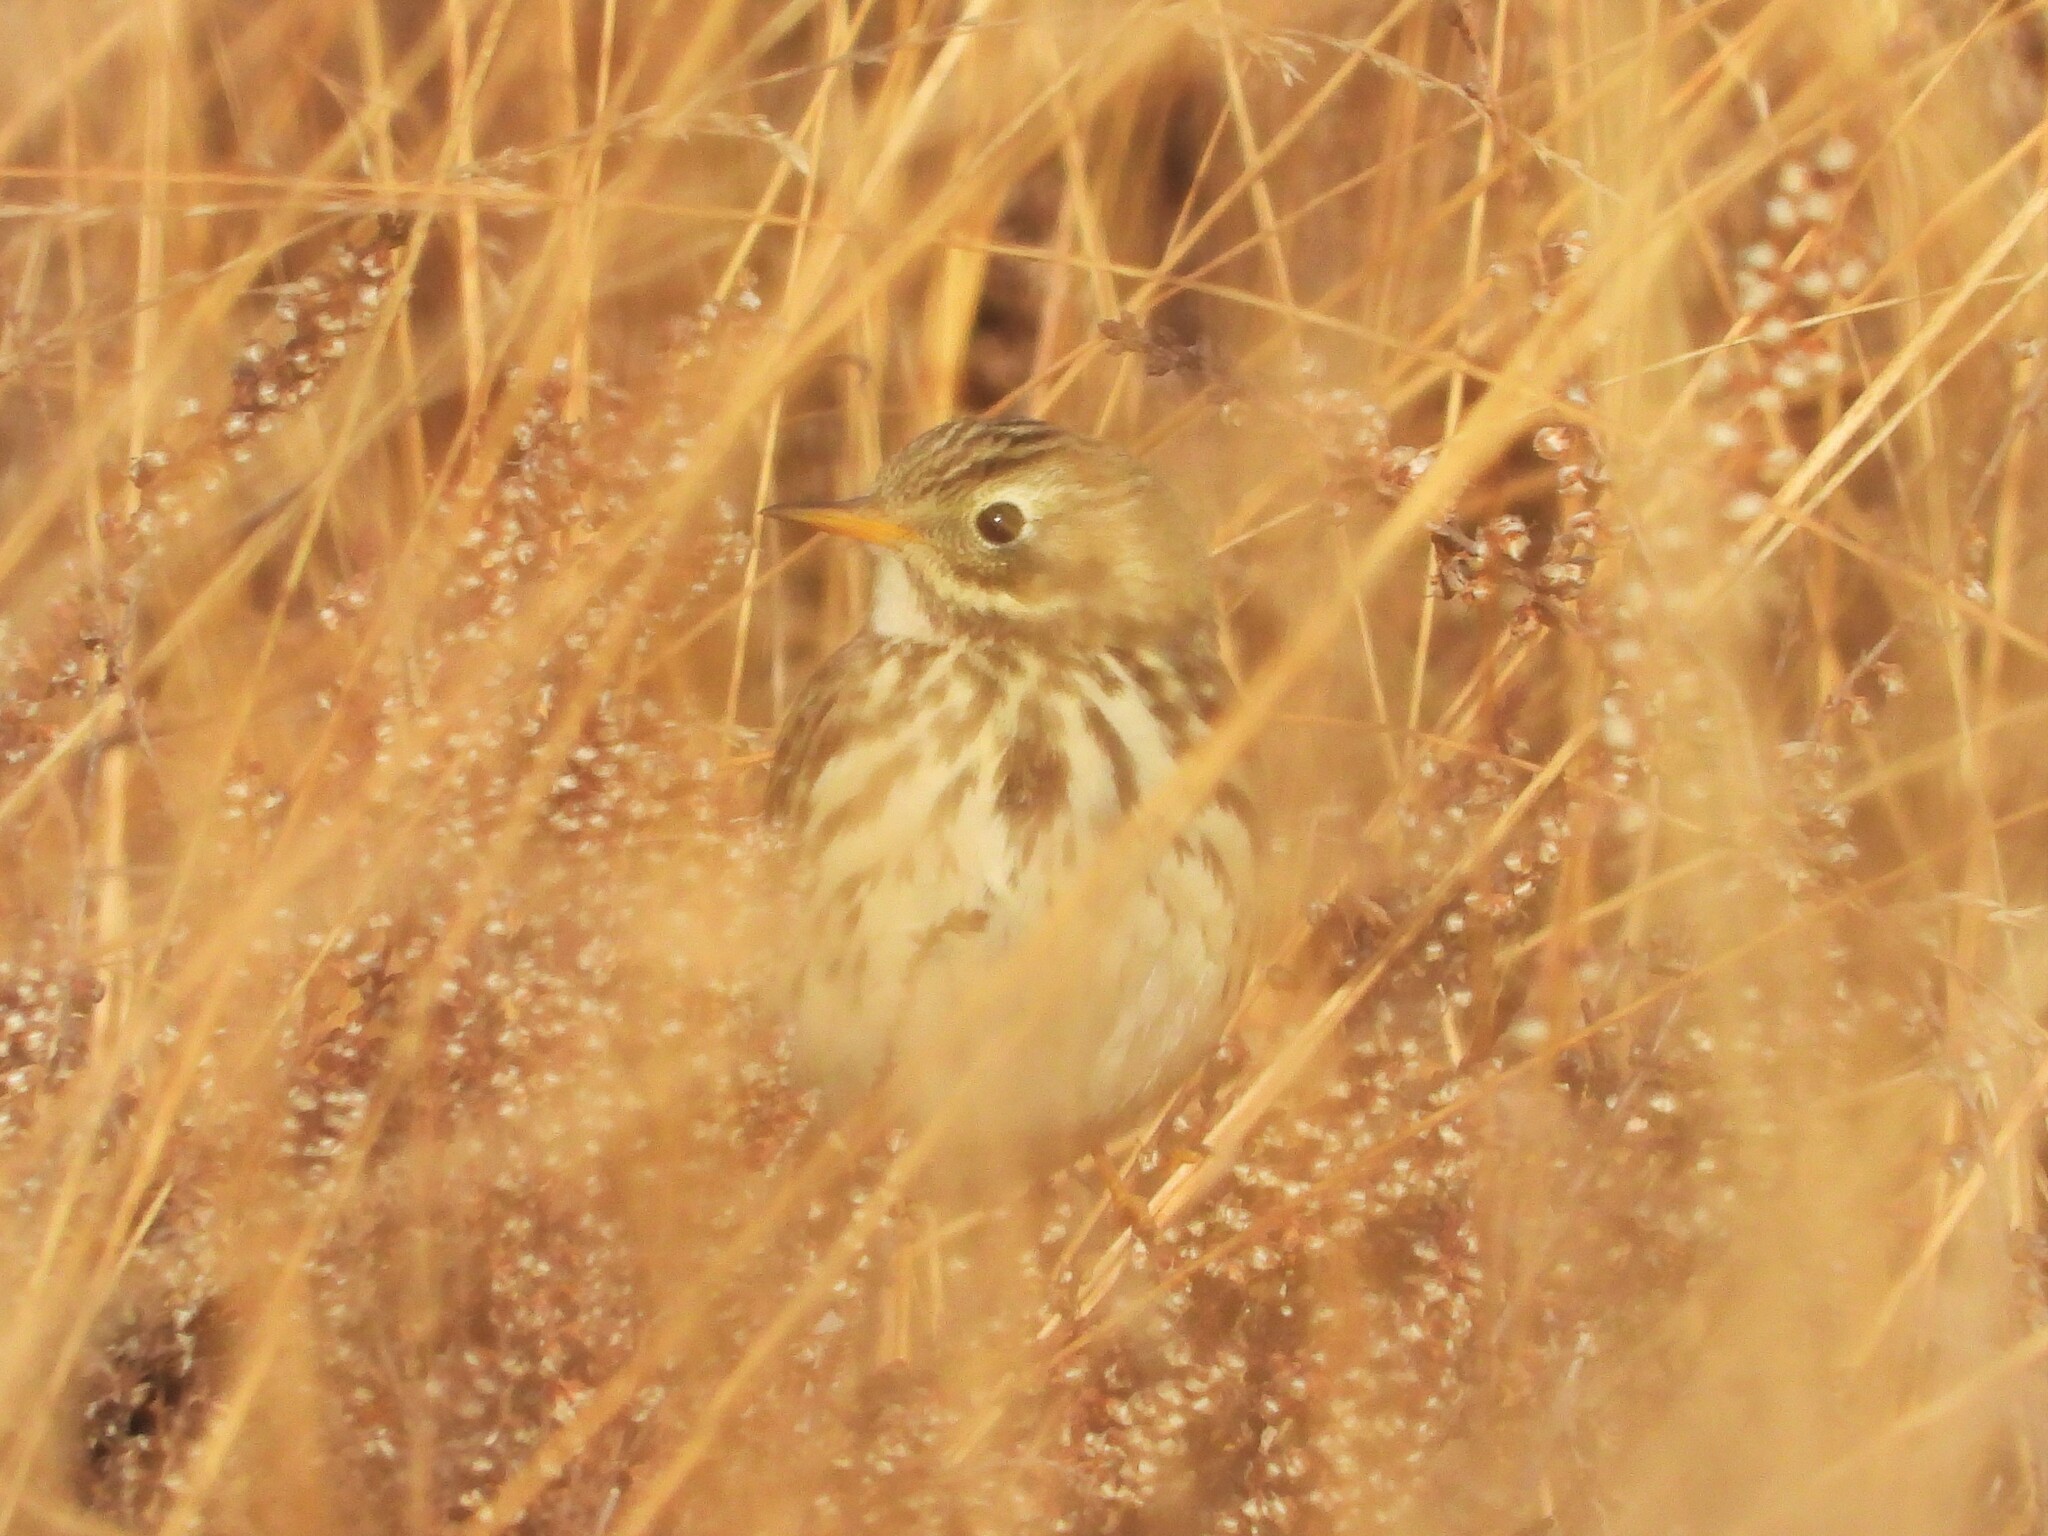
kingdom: Animalia
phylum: Chordata
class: Aves
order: Passeriformes
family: Motacillidae
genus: Anthus
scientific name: Anthus pratensis
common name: Meadow pipit
